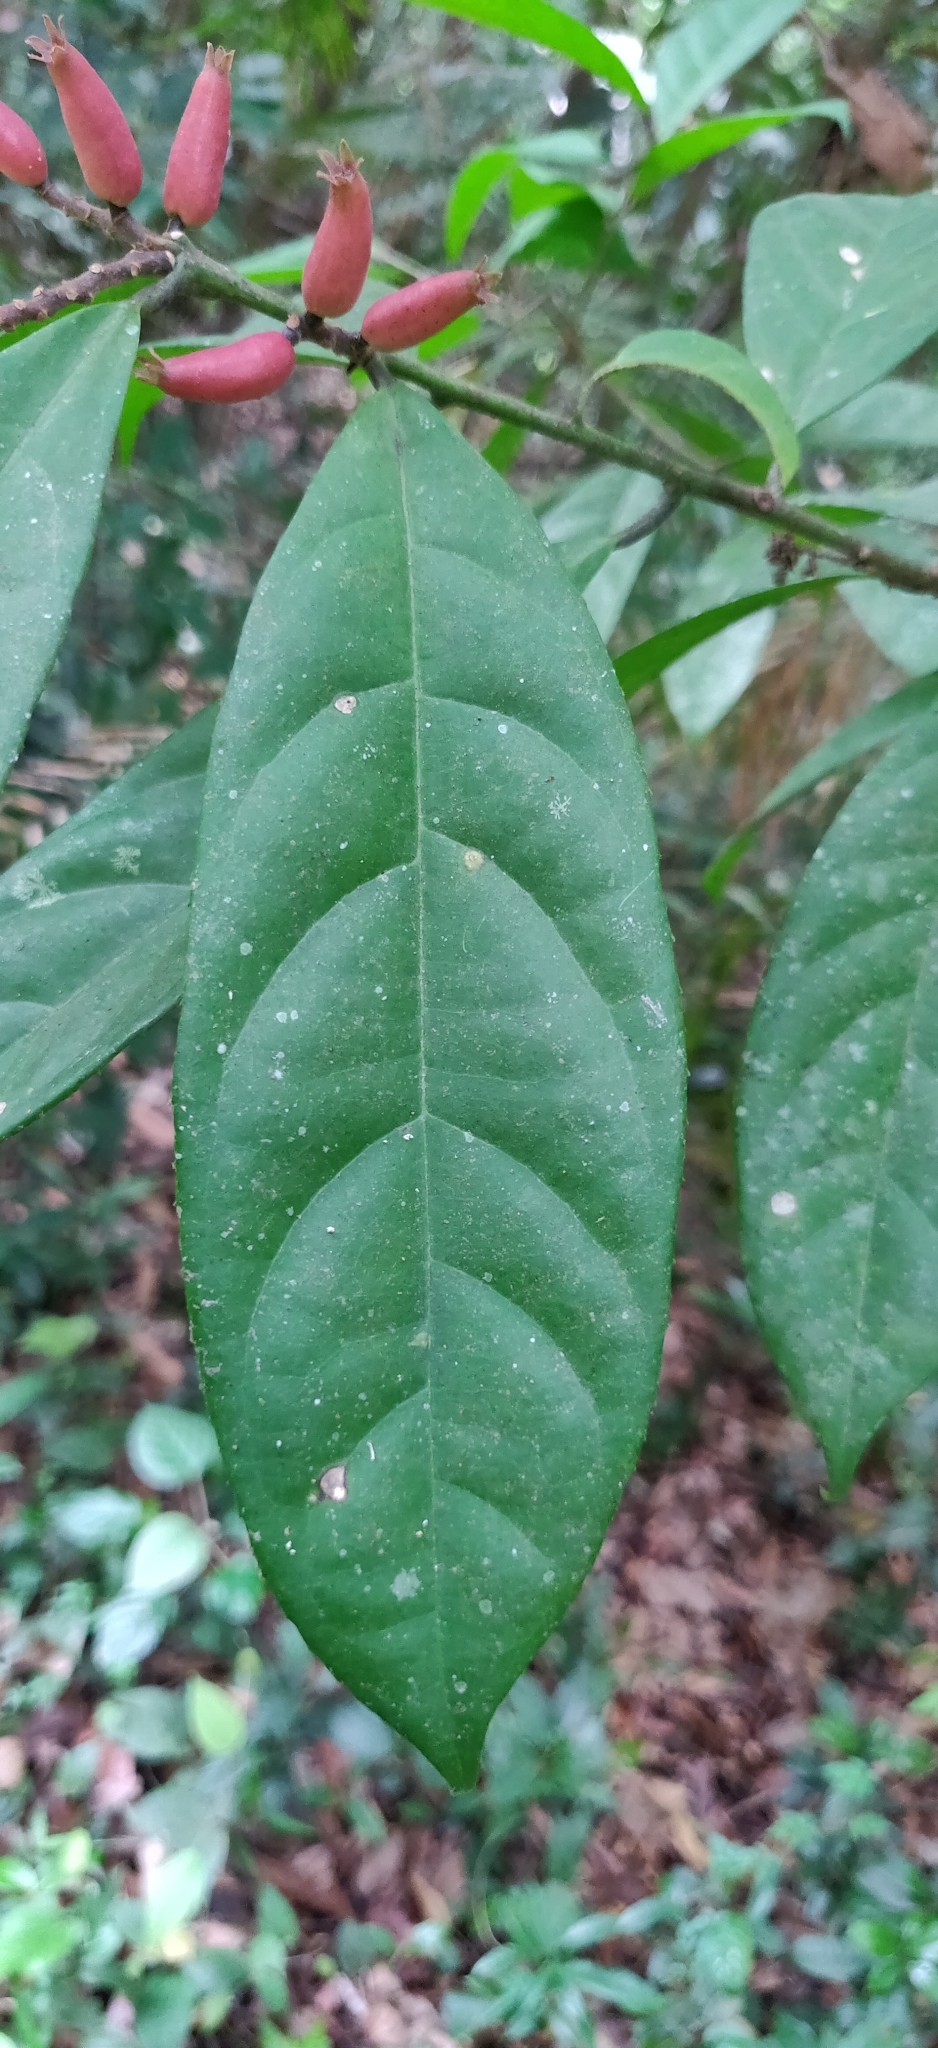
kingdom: Plantae
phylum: Tracheophyta
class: Magnoliopsida
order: Ericales
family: Symplocaceae
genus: Symplocos
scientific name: Symplocos macrophylla
